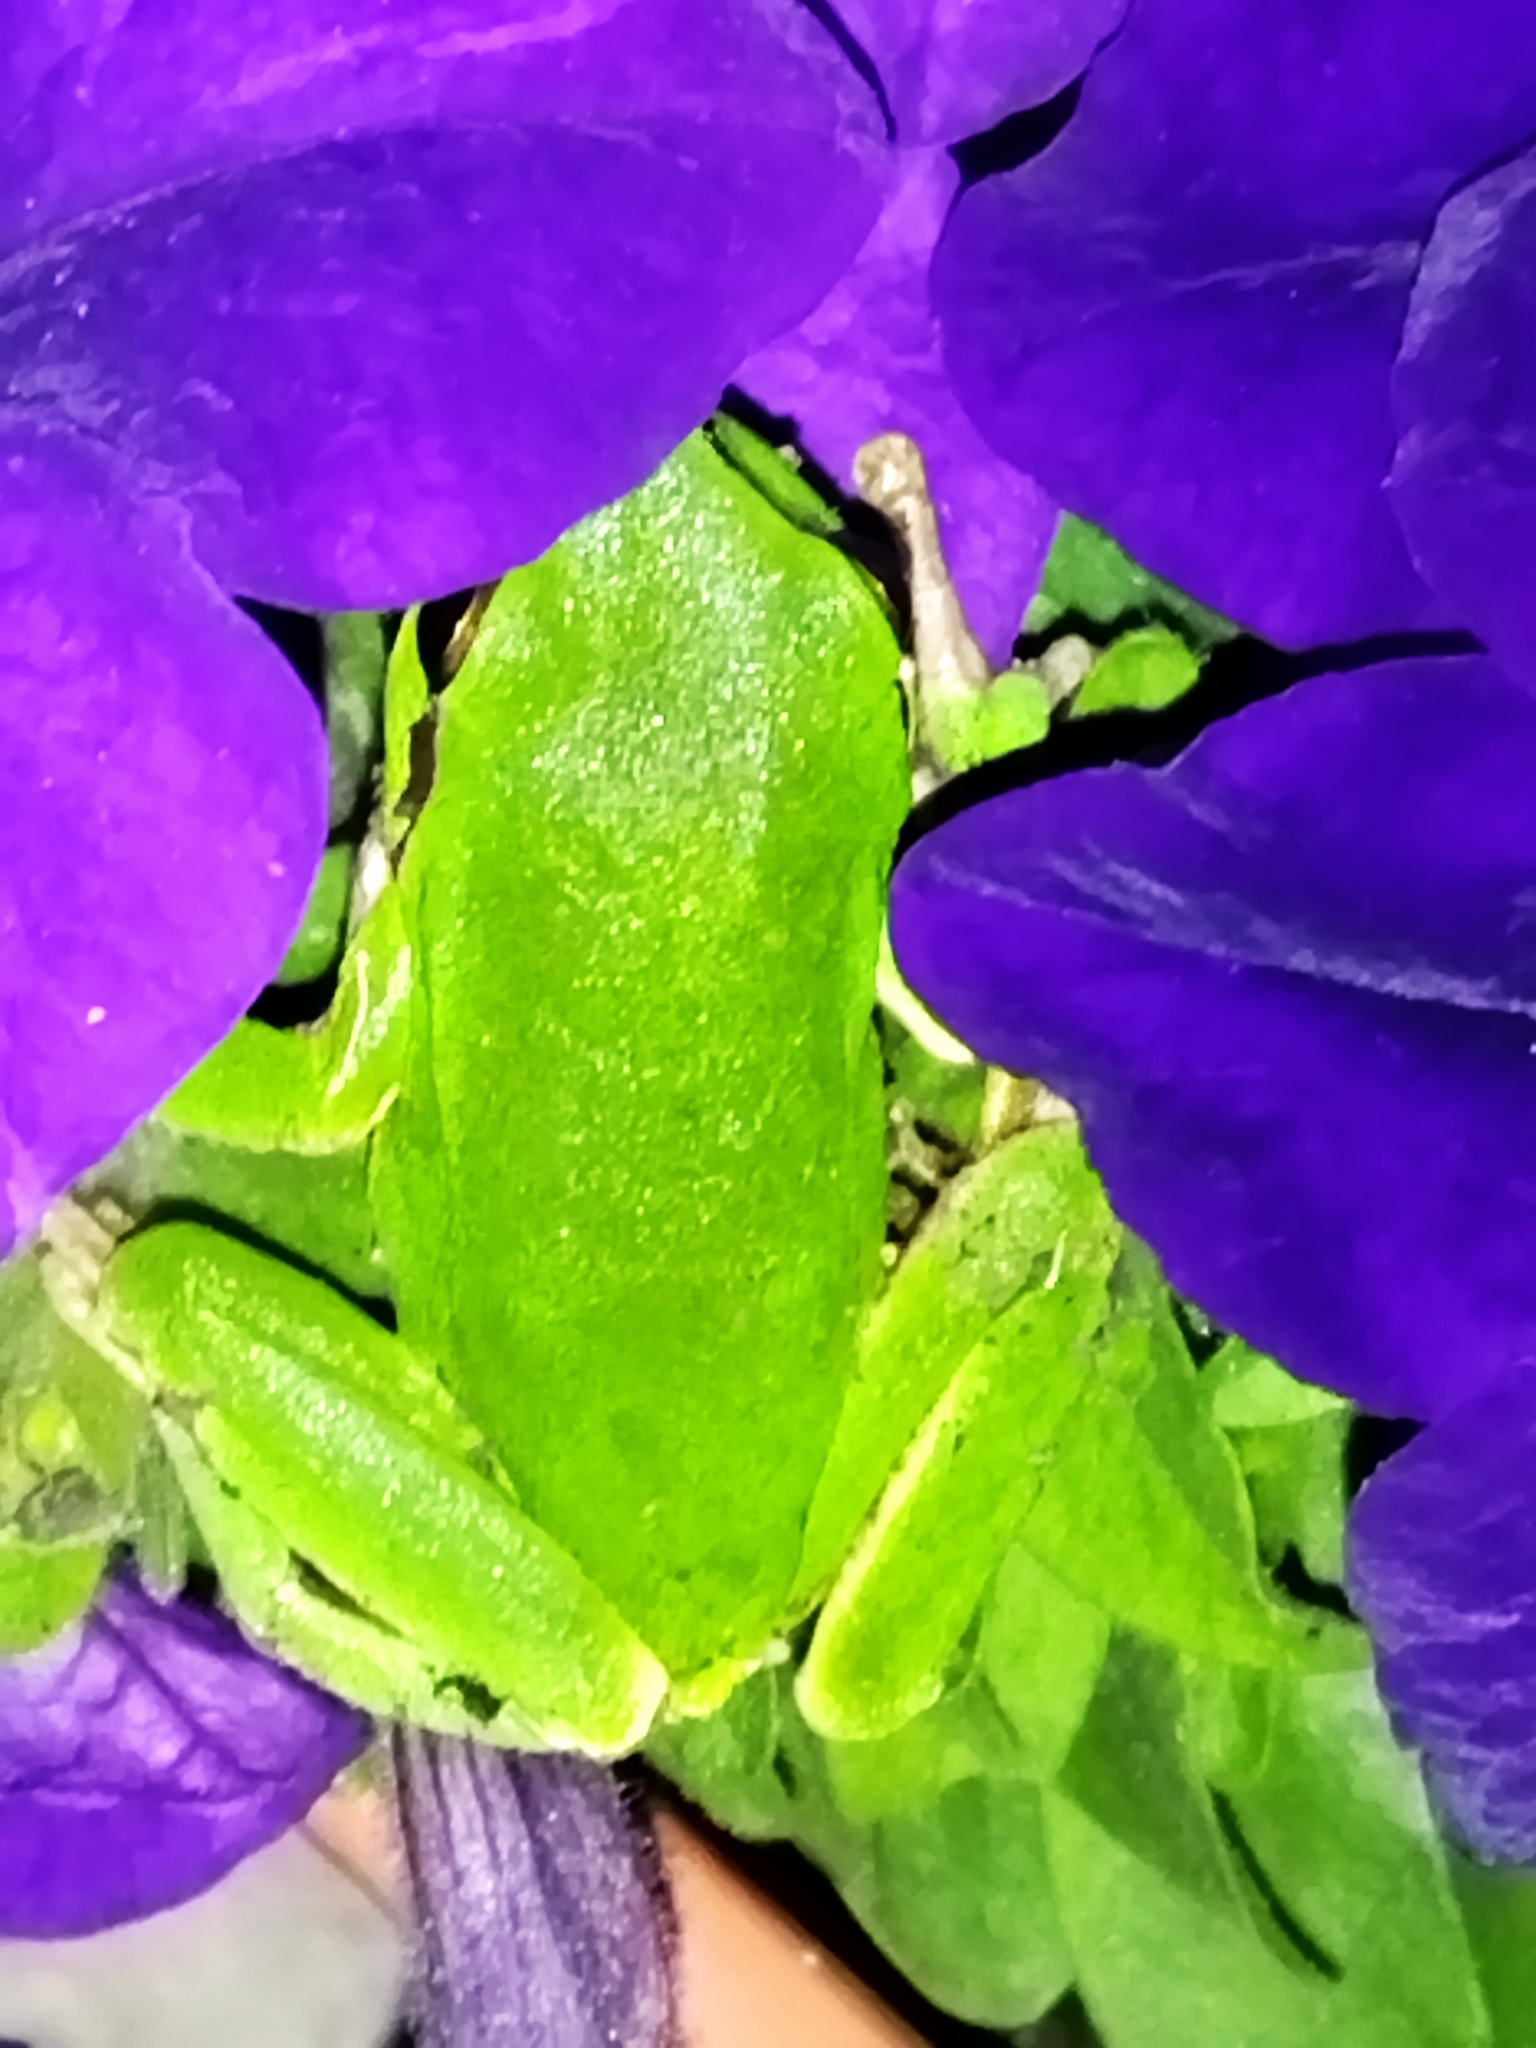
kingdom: Animalia
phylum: Chordata
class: Amphibia
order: Anura
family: Hylidae
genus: Hyla
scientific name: Hyla orientalis
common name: Caucasian treefrog
